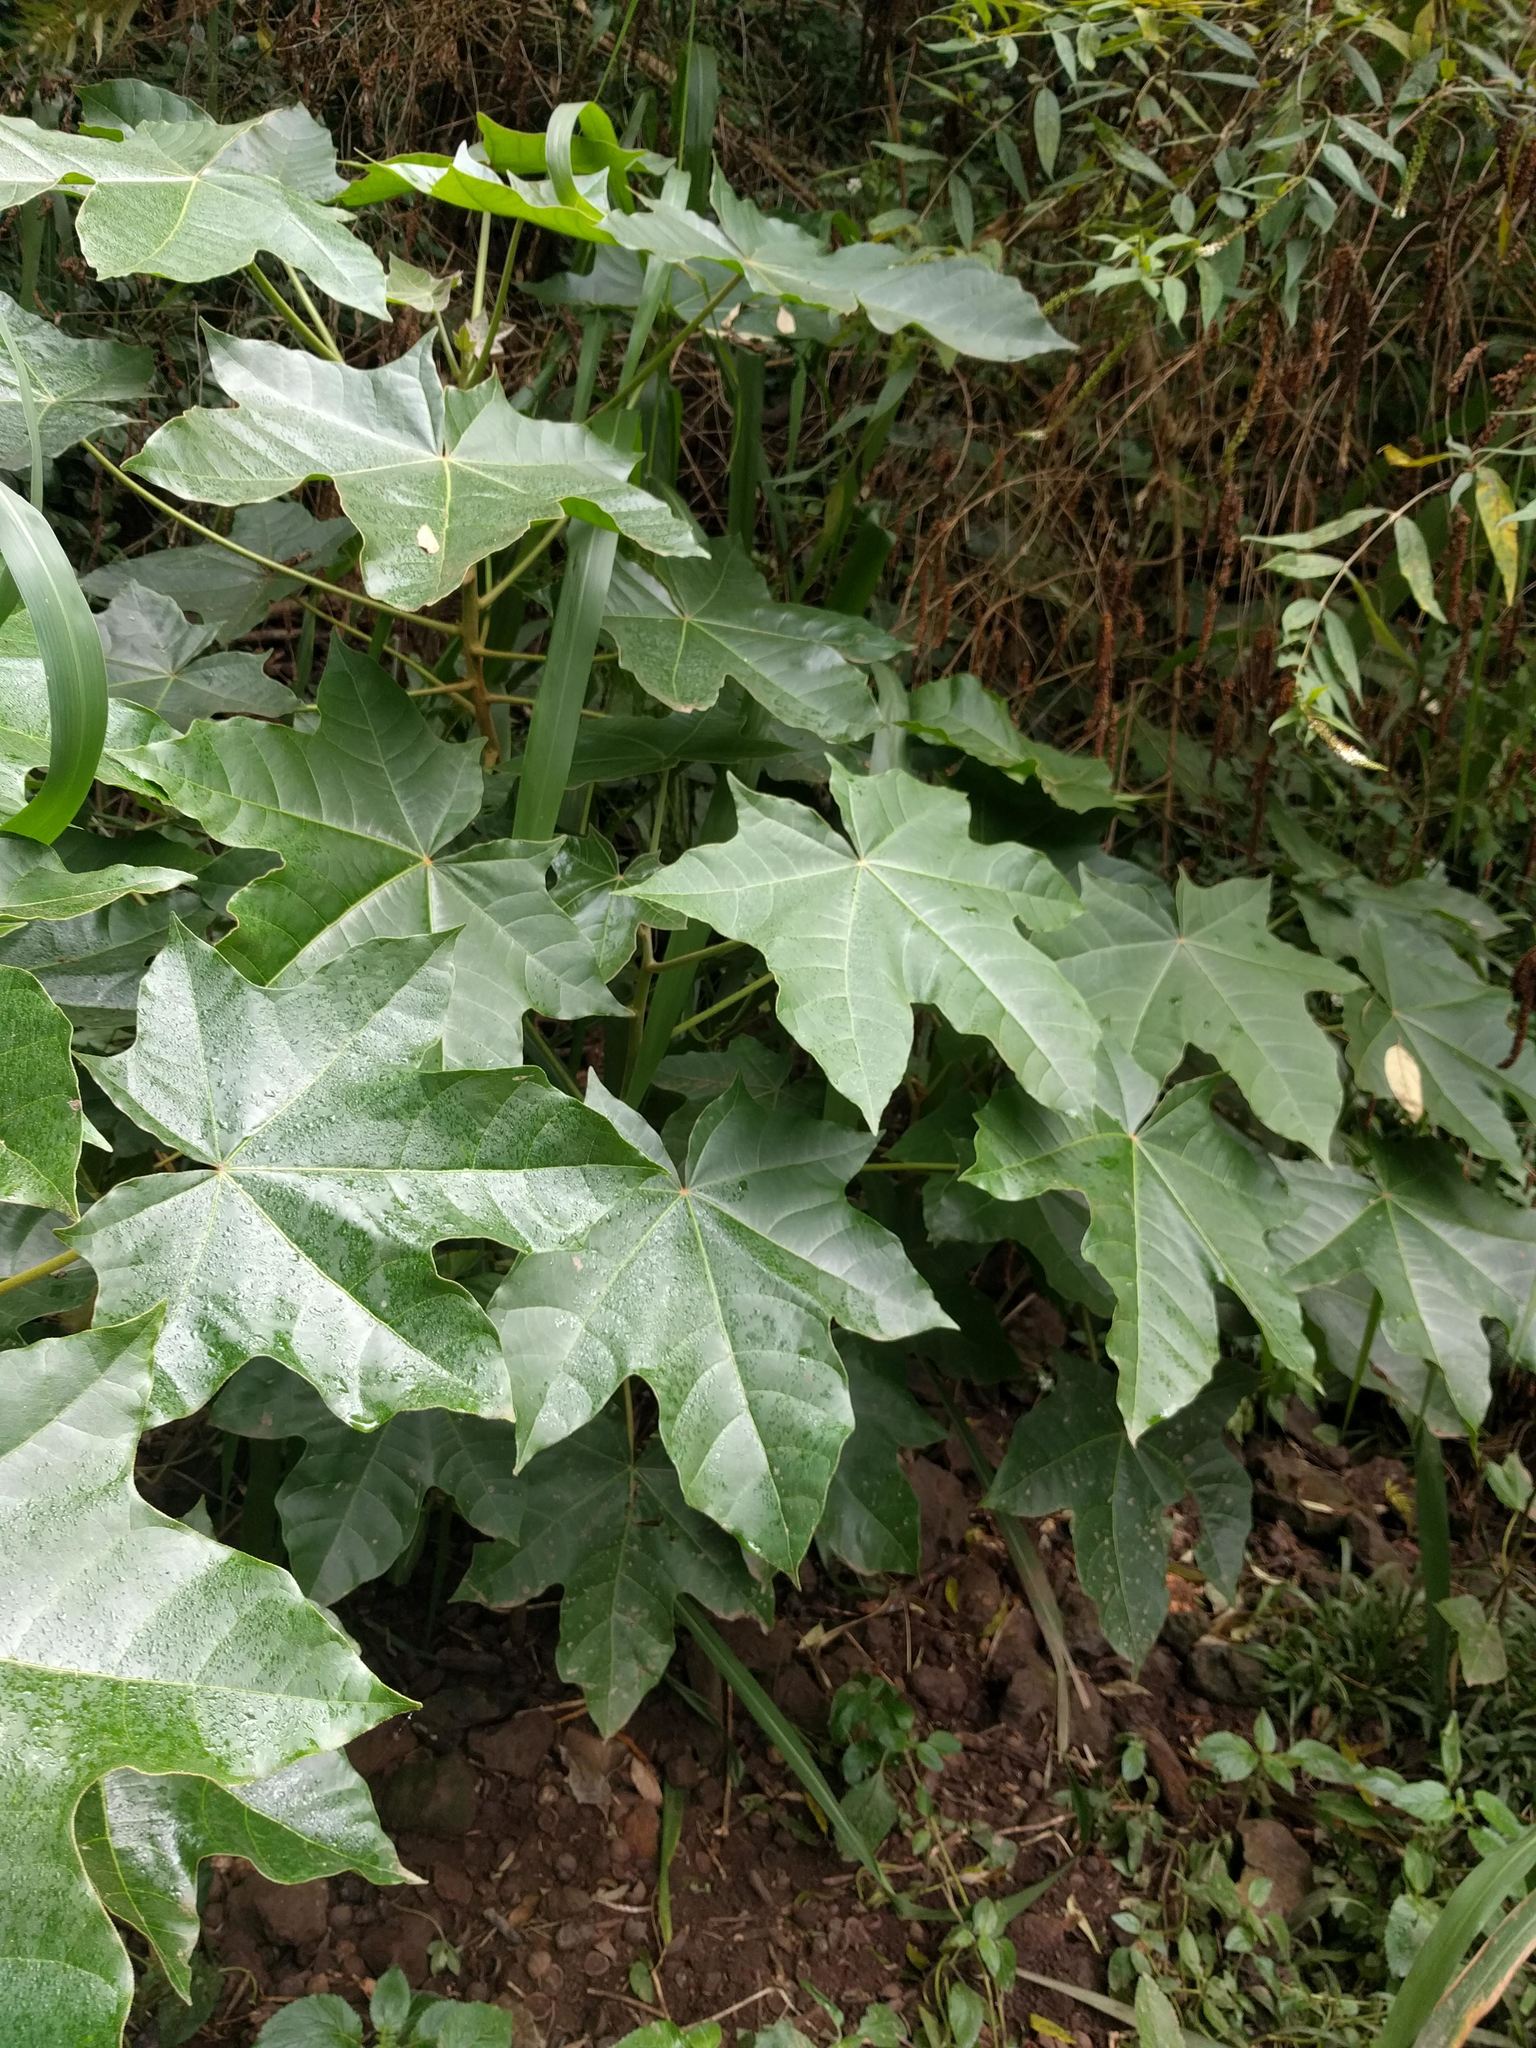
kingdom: Plantae
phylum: Tracheophyta
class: Magnoliopsida
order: Malpighiales
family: Euphorbiaceae
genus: Aleurites
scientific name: Aleurites moluccanus
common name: Candlenut tree
